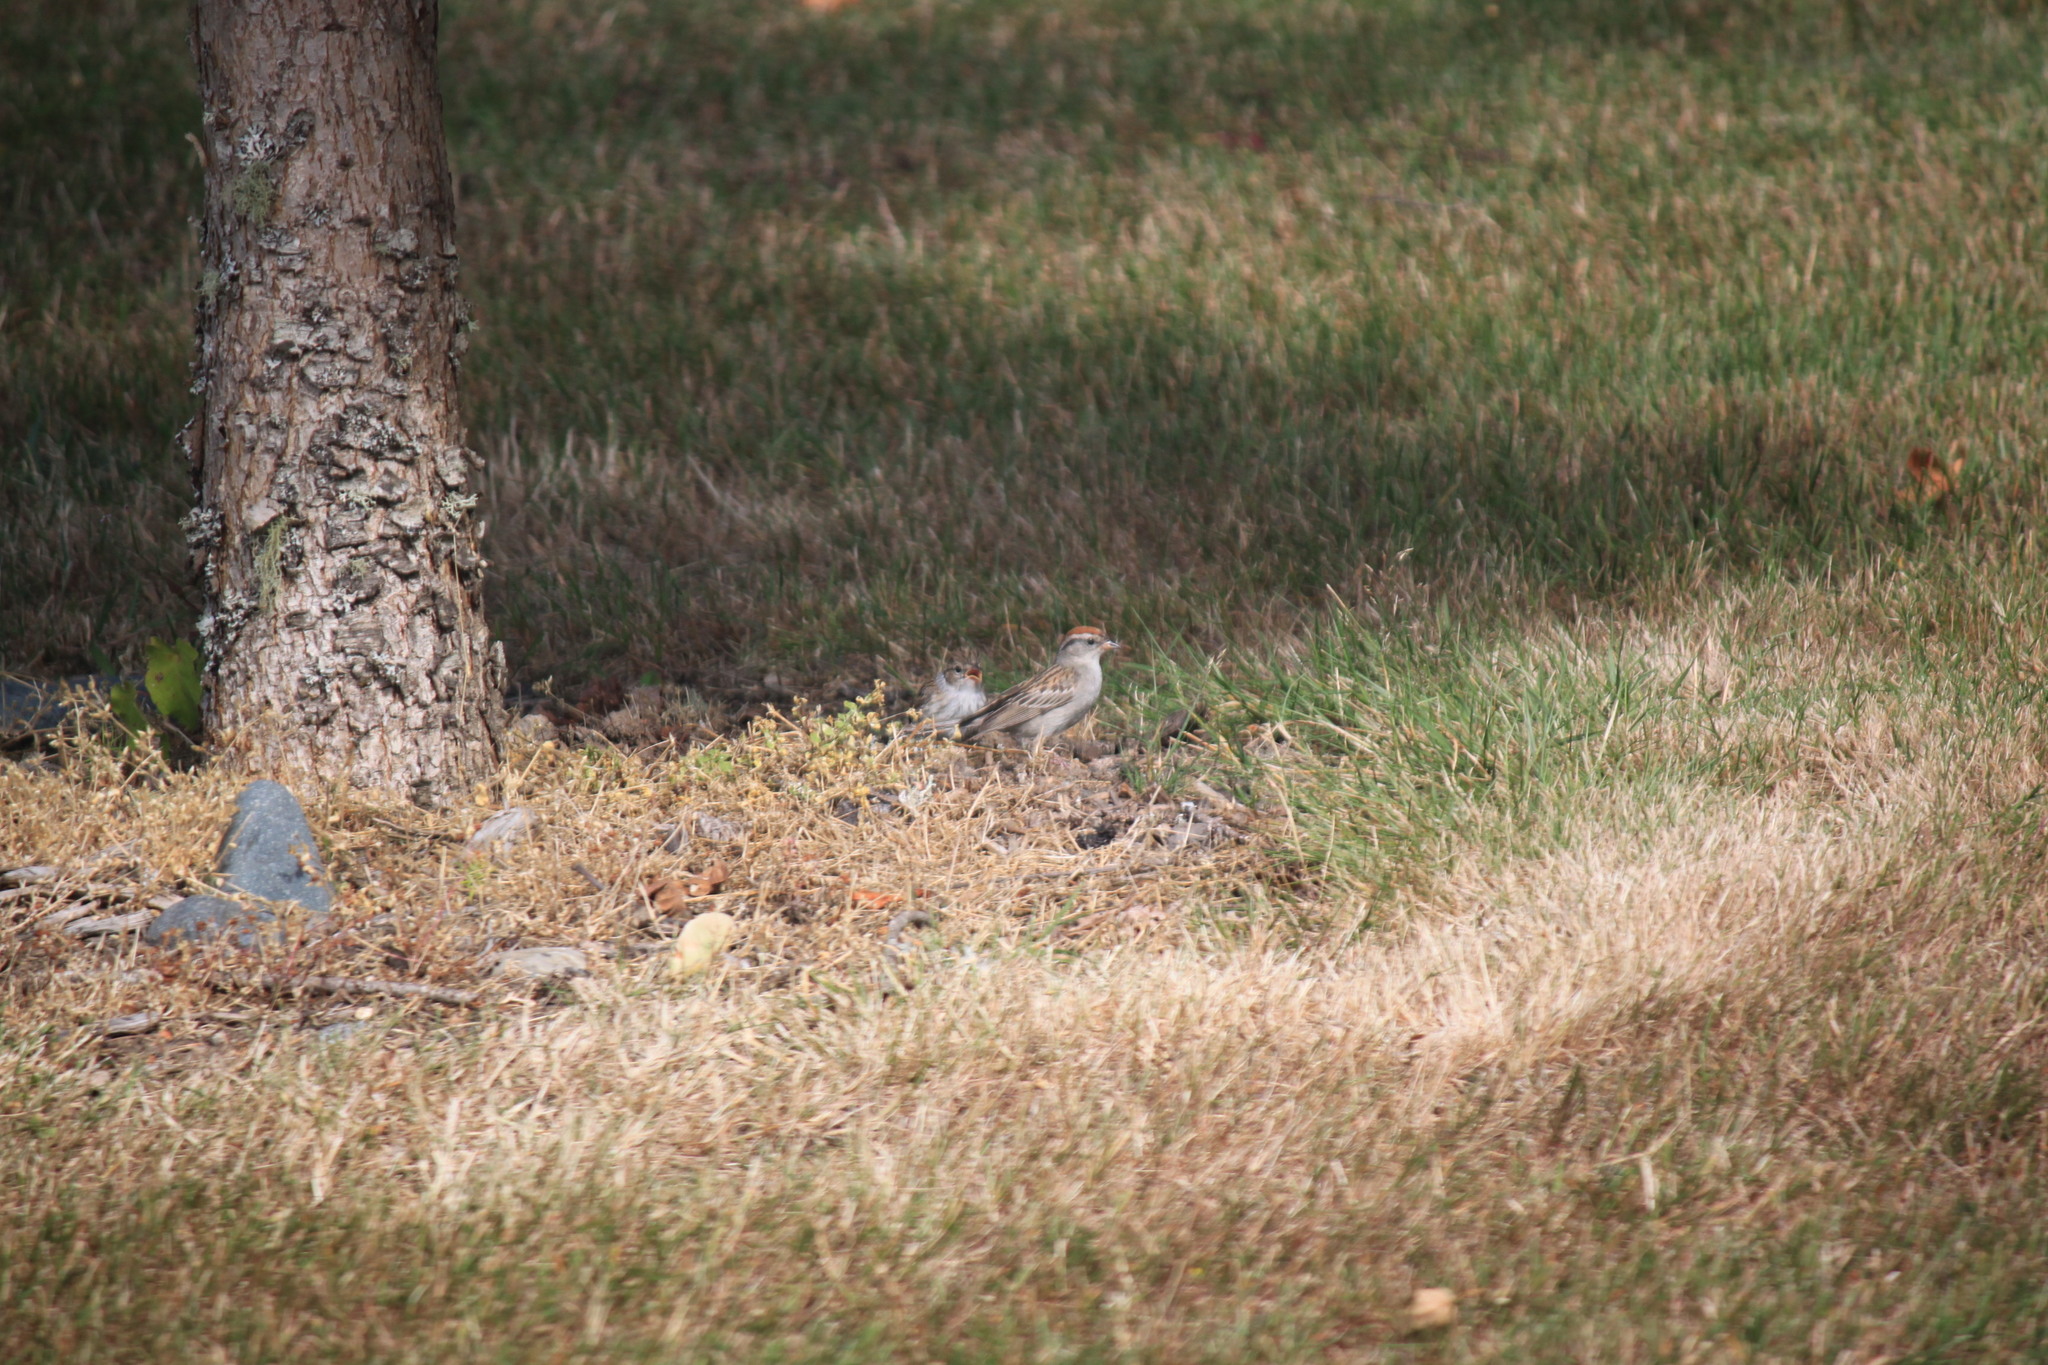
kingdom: Animalia
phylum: Chordata
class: Aves
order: Passeriformes
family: Passerellidae
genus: Spizella
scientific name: Spizella passerina
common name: Chipping sparrow
